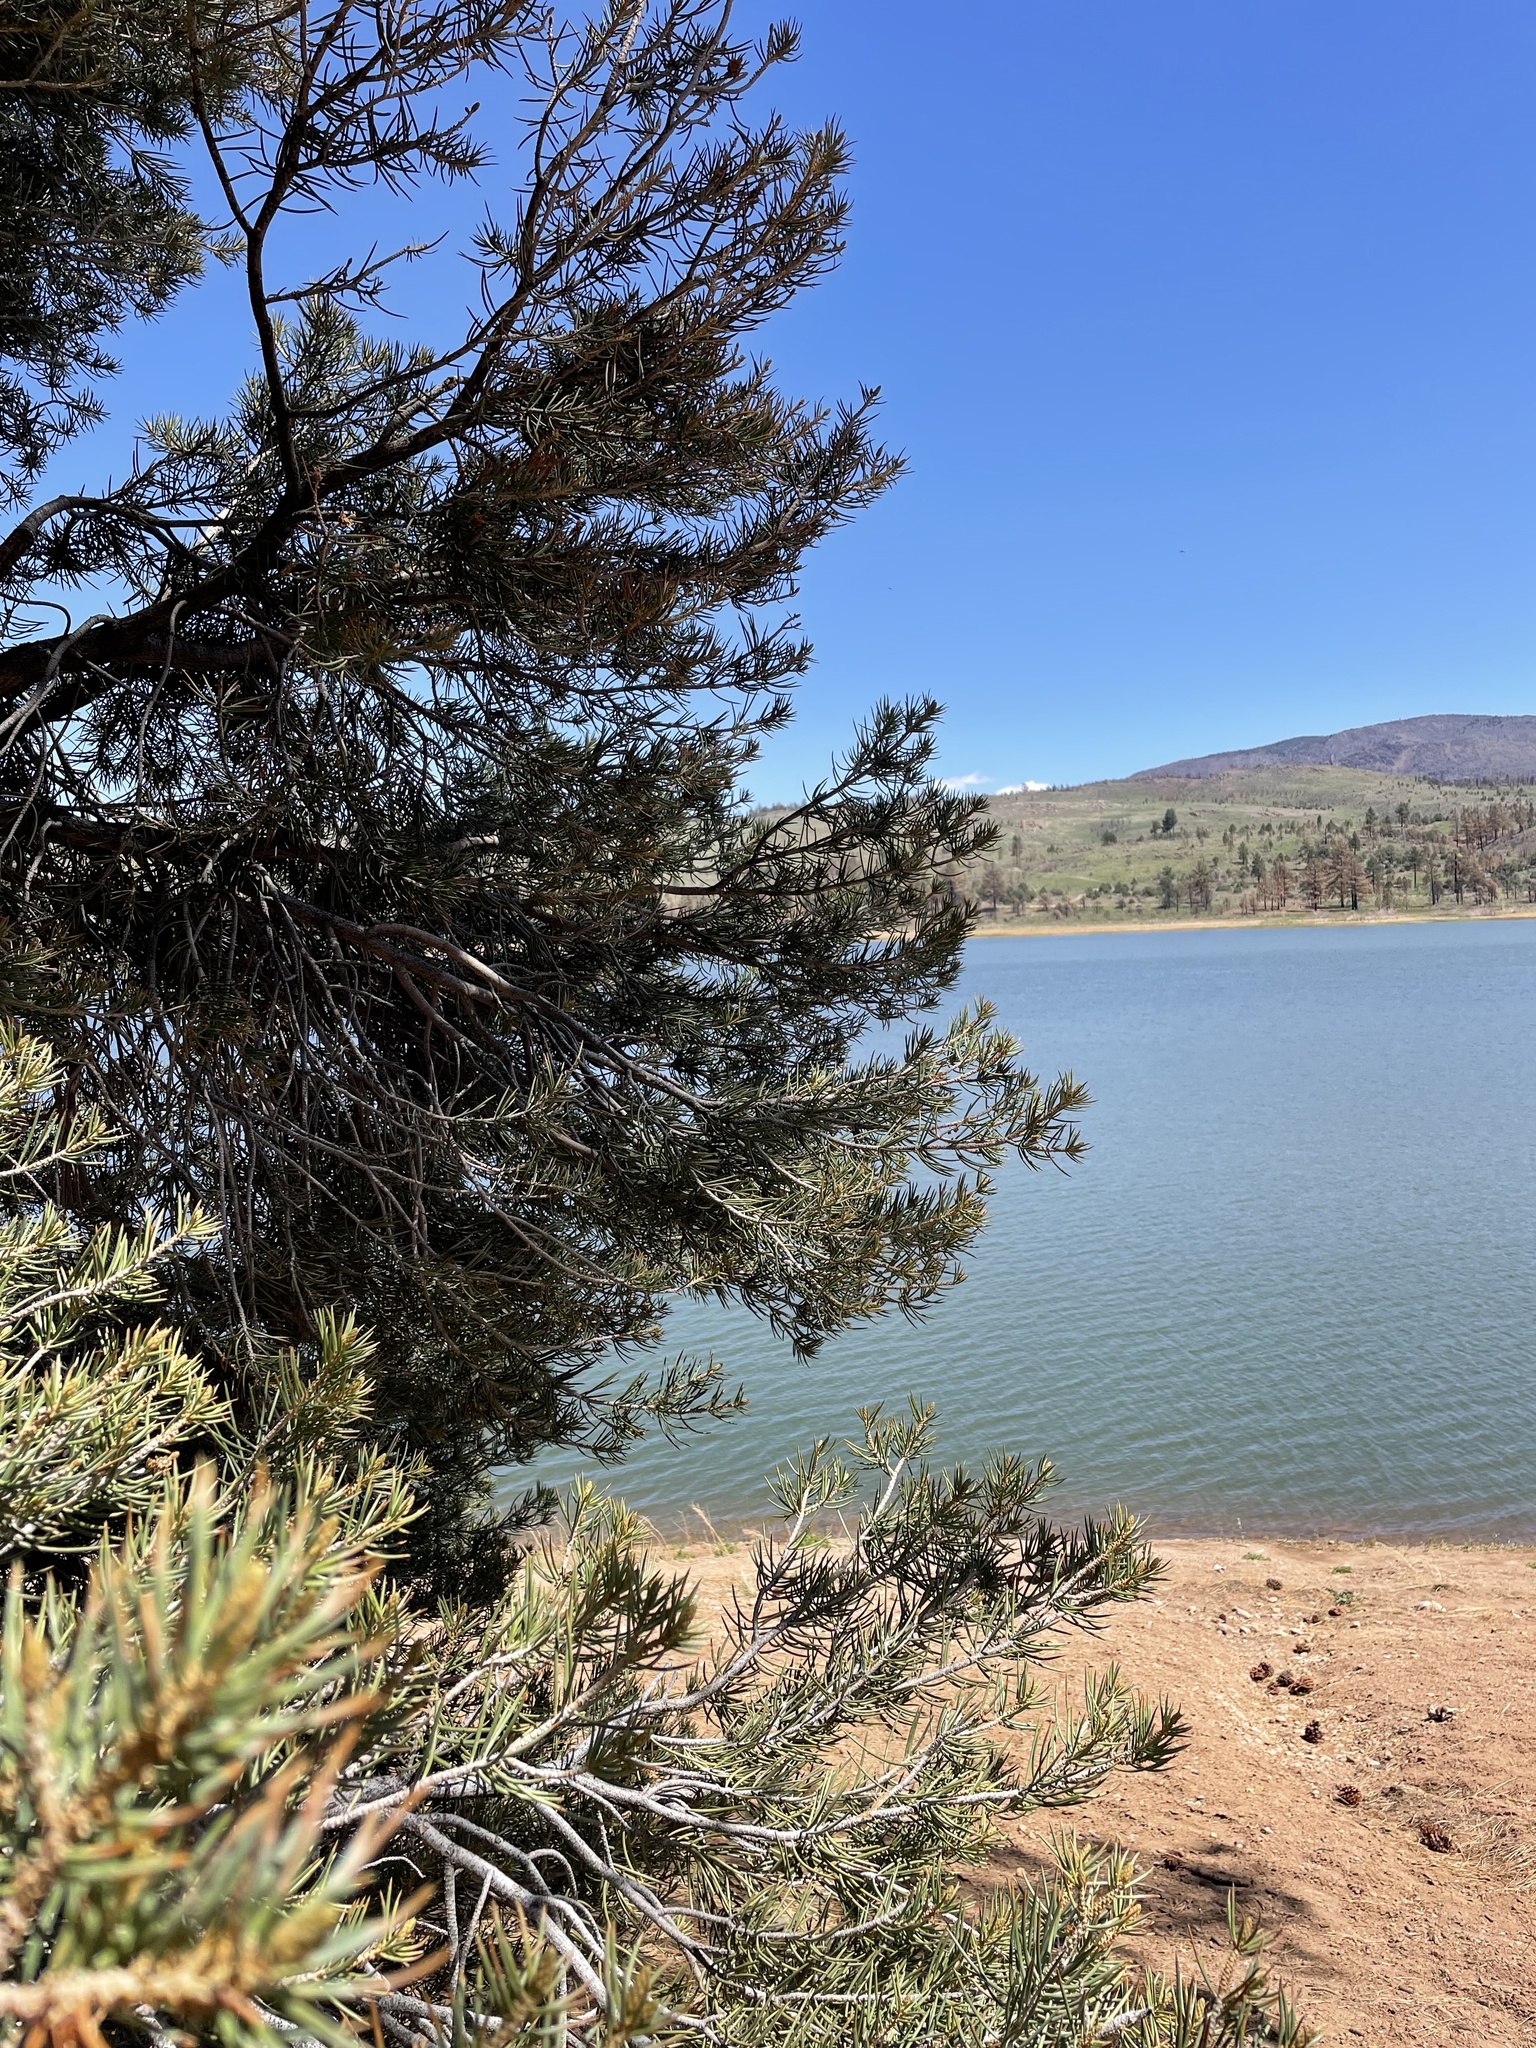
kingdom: Plantae
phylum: Tracheophyta
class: Pinopsida
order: Pinales
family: Pinaceae
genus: Pinus
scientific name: Pinus monophylla
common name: One-leaved nut pine
